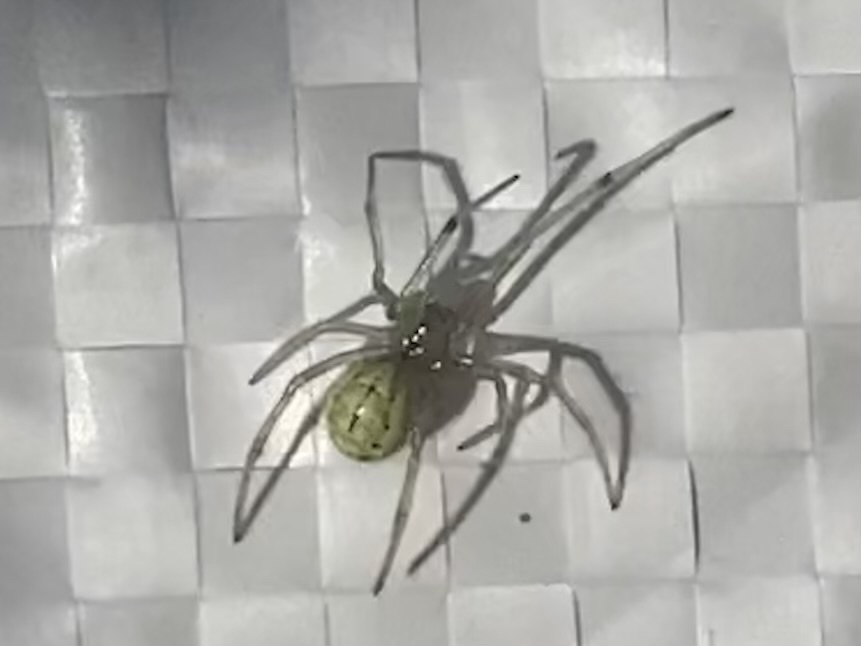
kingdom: Animalia
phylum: Arthropoda
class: Arachnida
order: Araneae
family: Theridiidae
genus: Enoplognatha
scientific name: Enoplognatha ovata
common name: Common candy-striped spider
